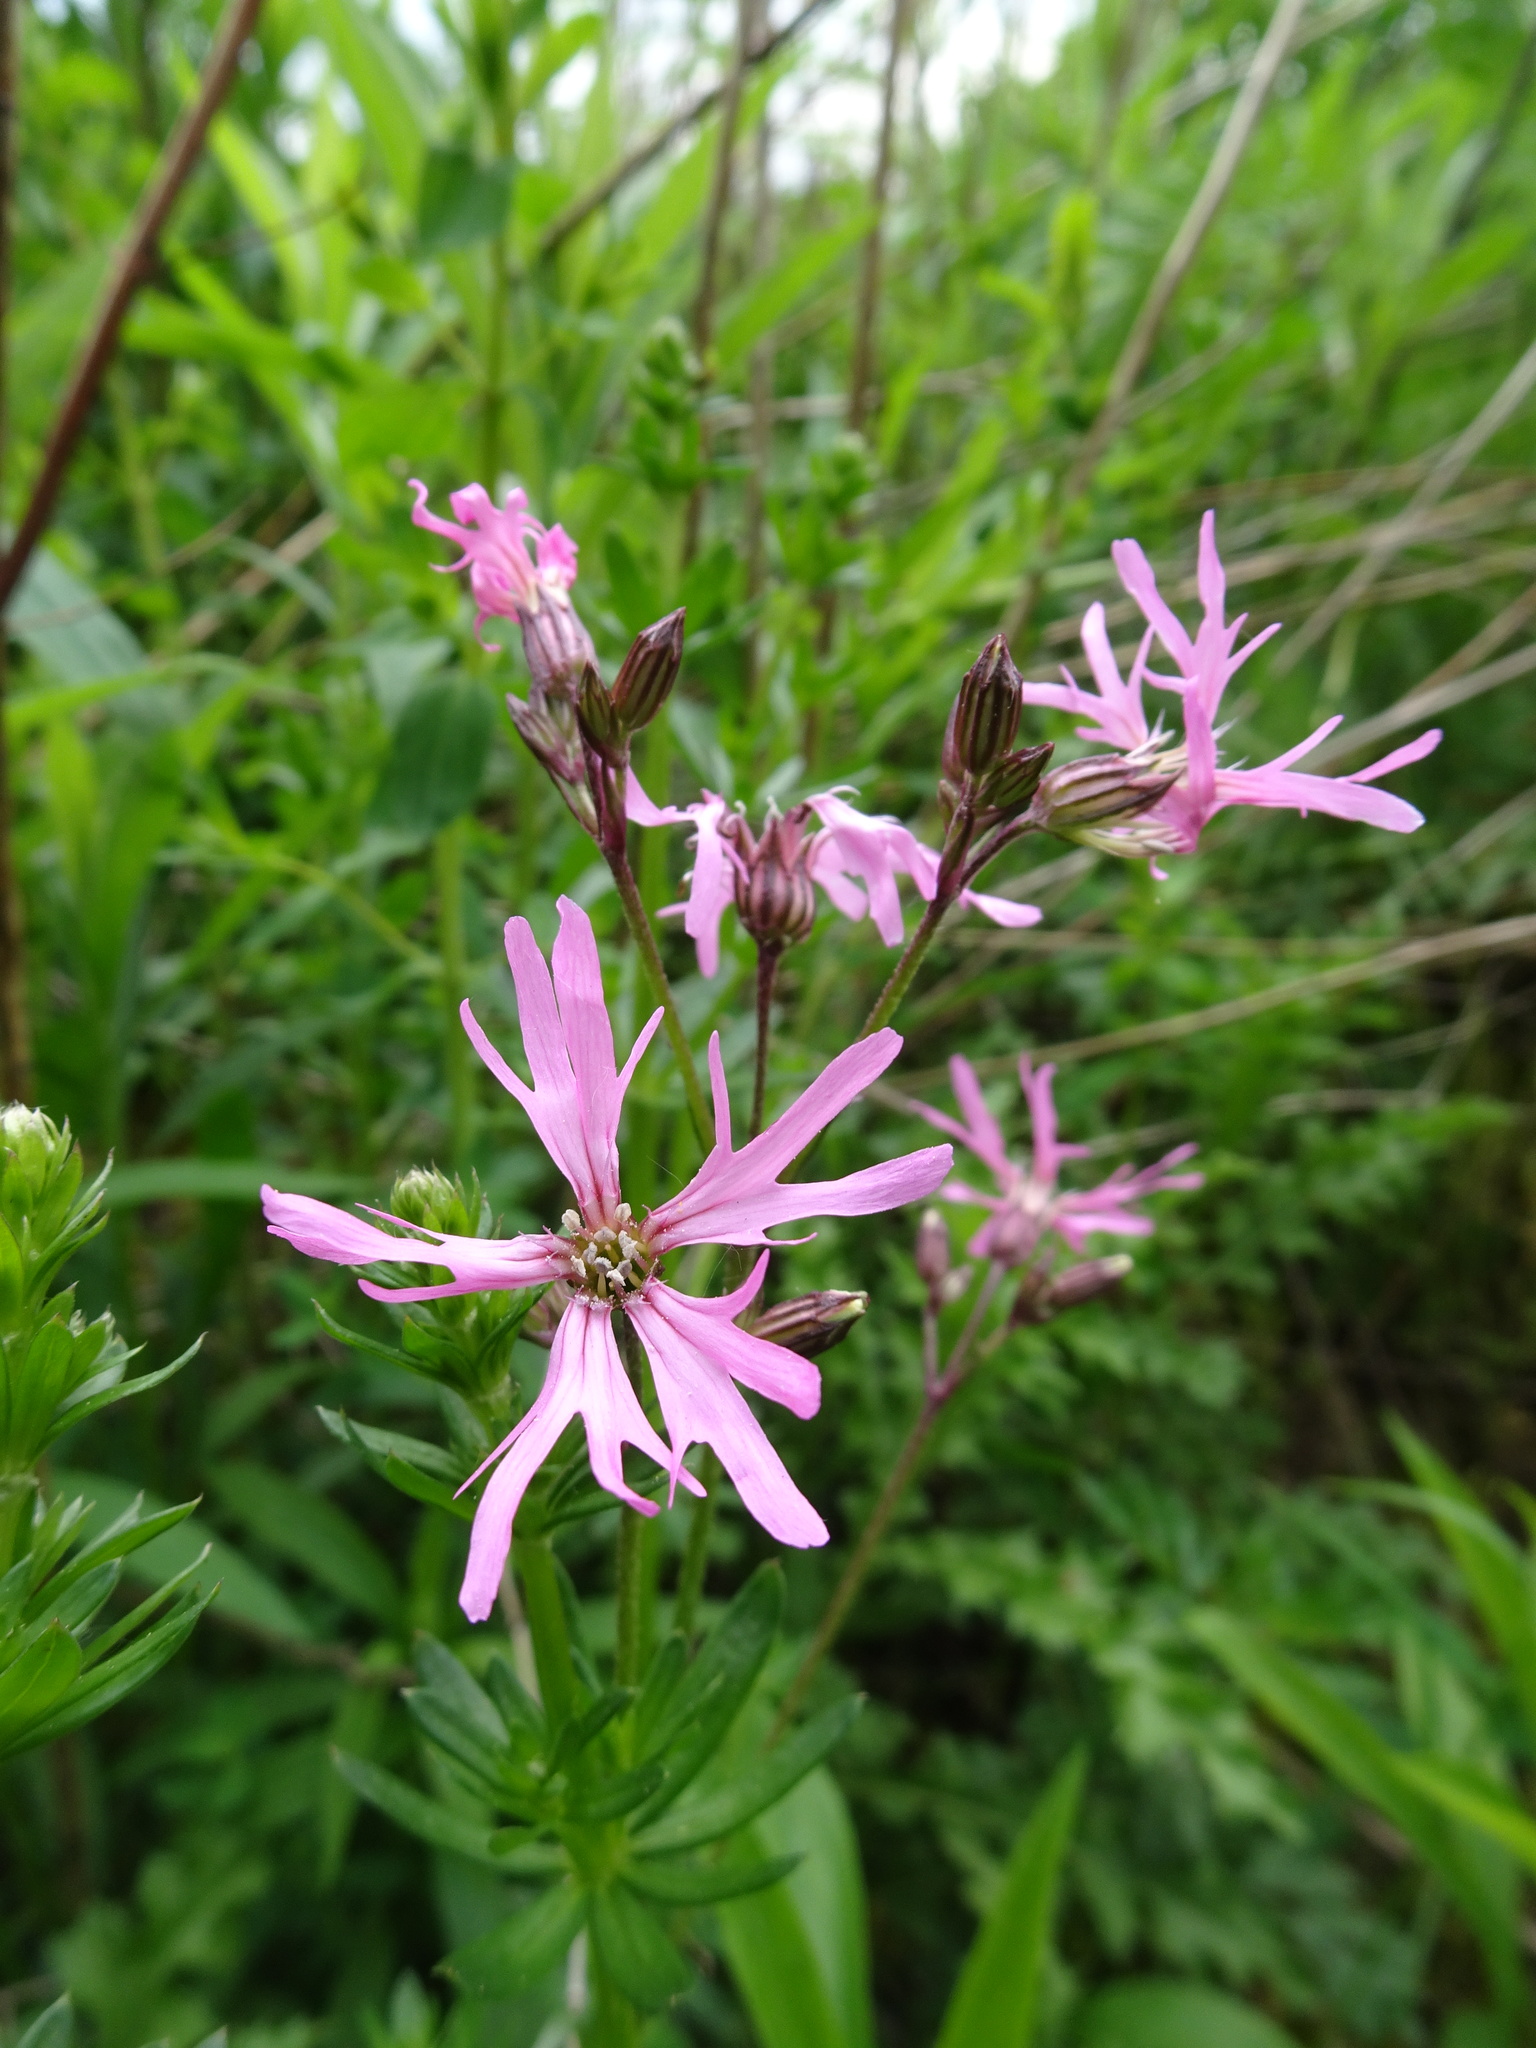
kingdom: Plantae
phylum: Tracheophyta
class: Magnoliopsida
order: Caryophyllales
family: Caryophyllaceae
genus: Silene
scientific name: Silene flos-cuculi
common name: Ragged-robin
